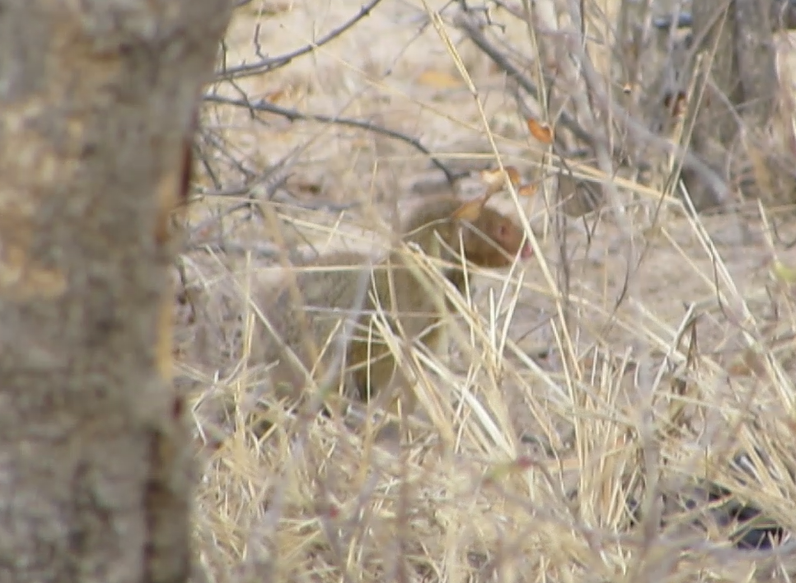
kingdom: Animalia
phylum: Chordata
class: Mammalia
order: Carnivora
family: Herpestidae
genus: Galerella
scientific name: Galerella sanguinea
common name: Slender mongoose
